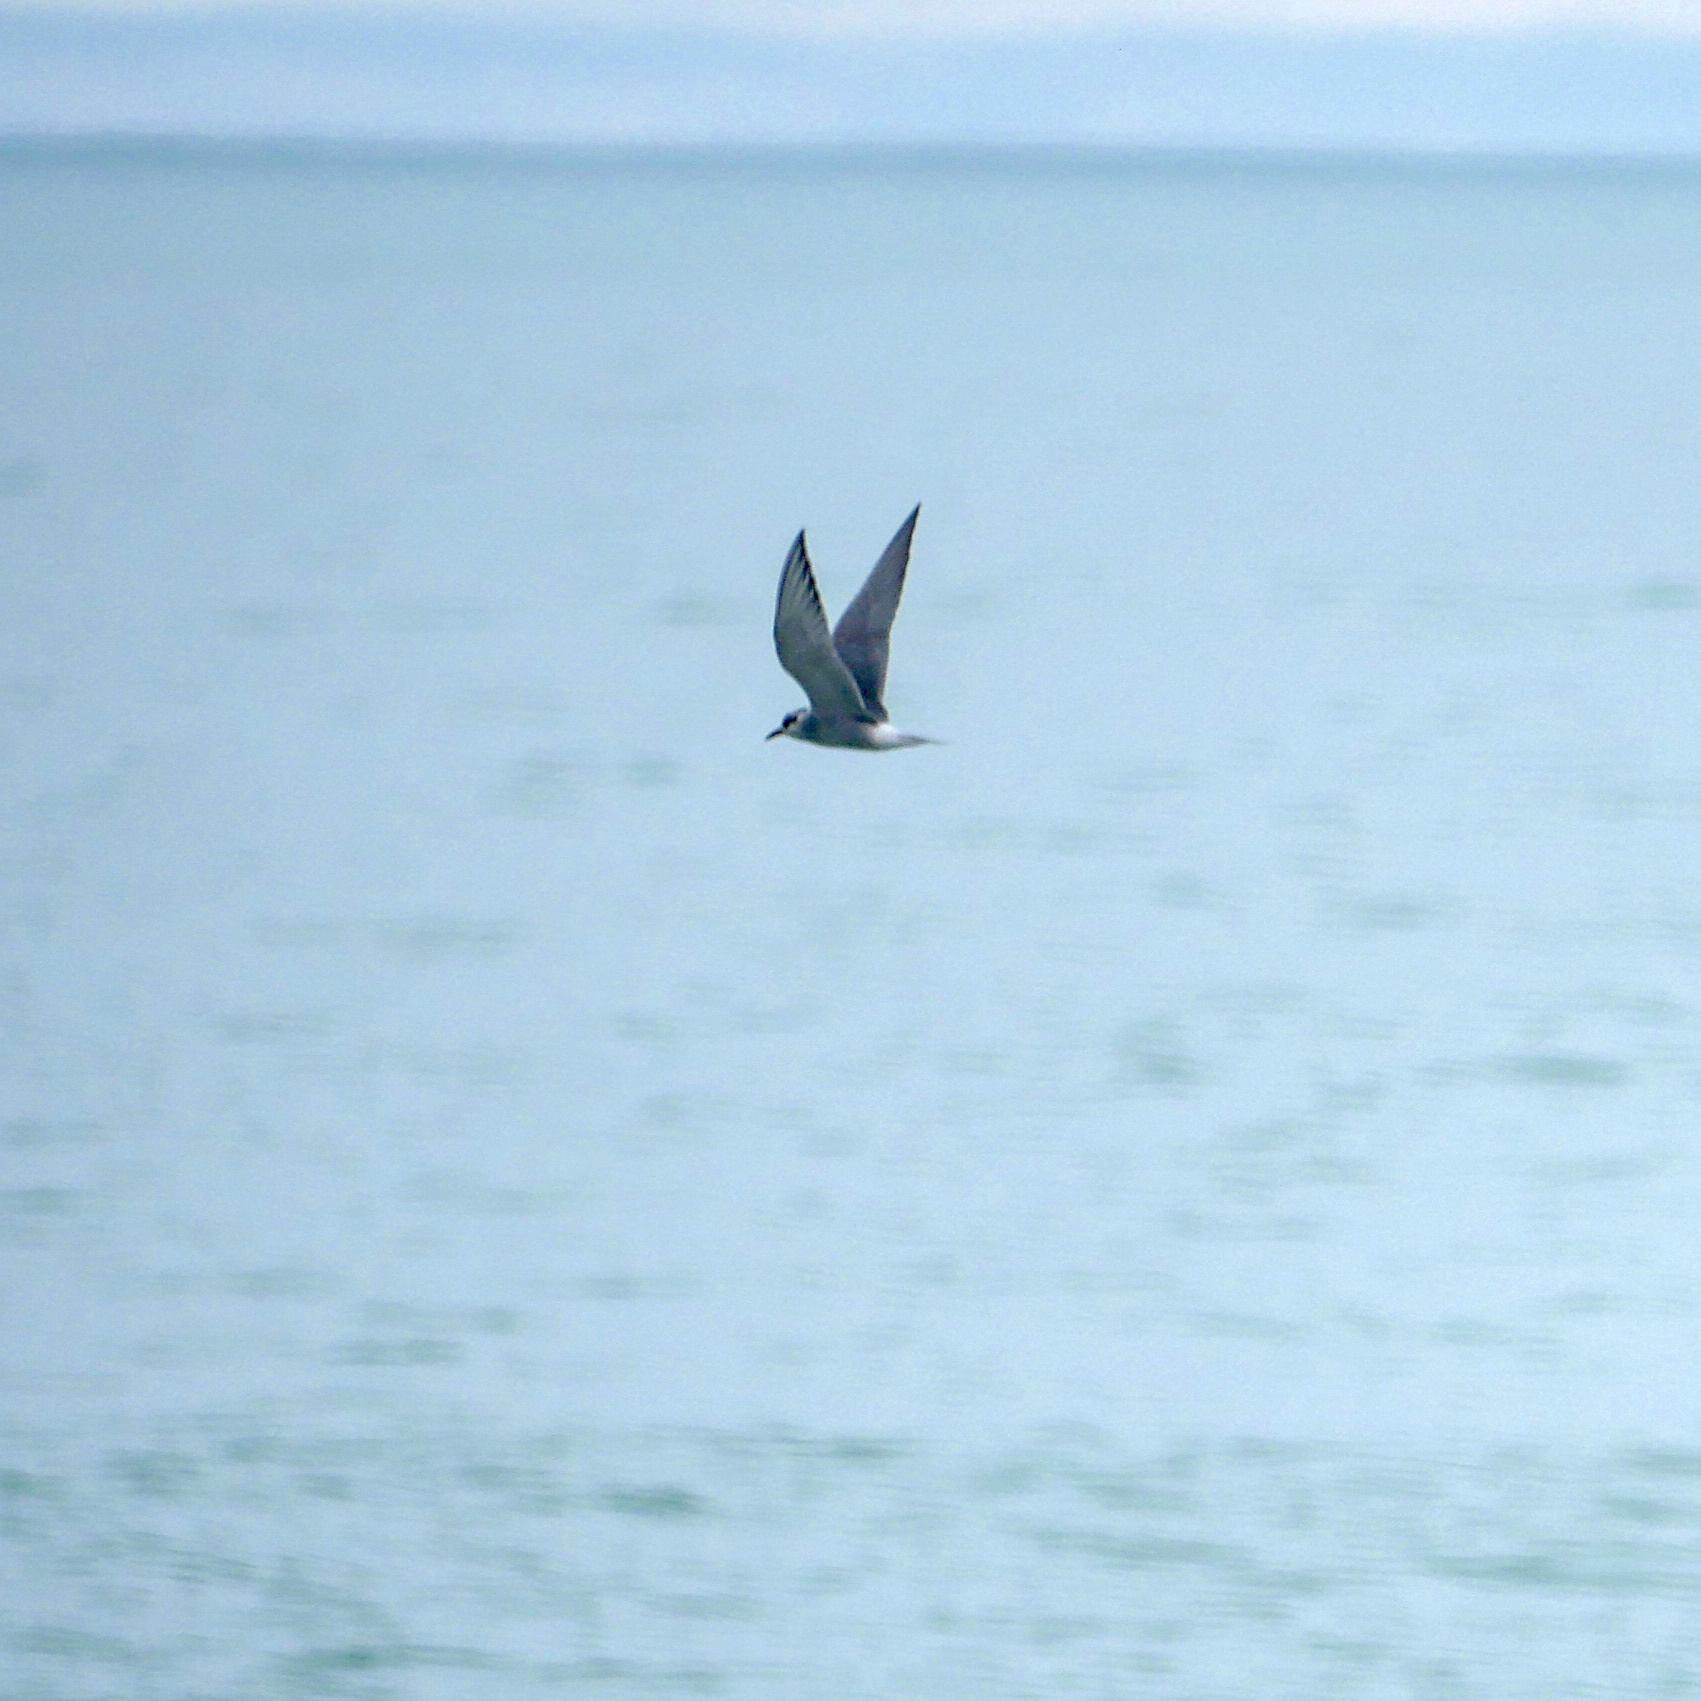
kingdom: Animalia
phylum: Chordata
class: Aves
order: Charadriiformes
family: Laridae
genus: Chlidonias
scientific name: Chlidonias albostriatus
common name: Black-fronted tern
